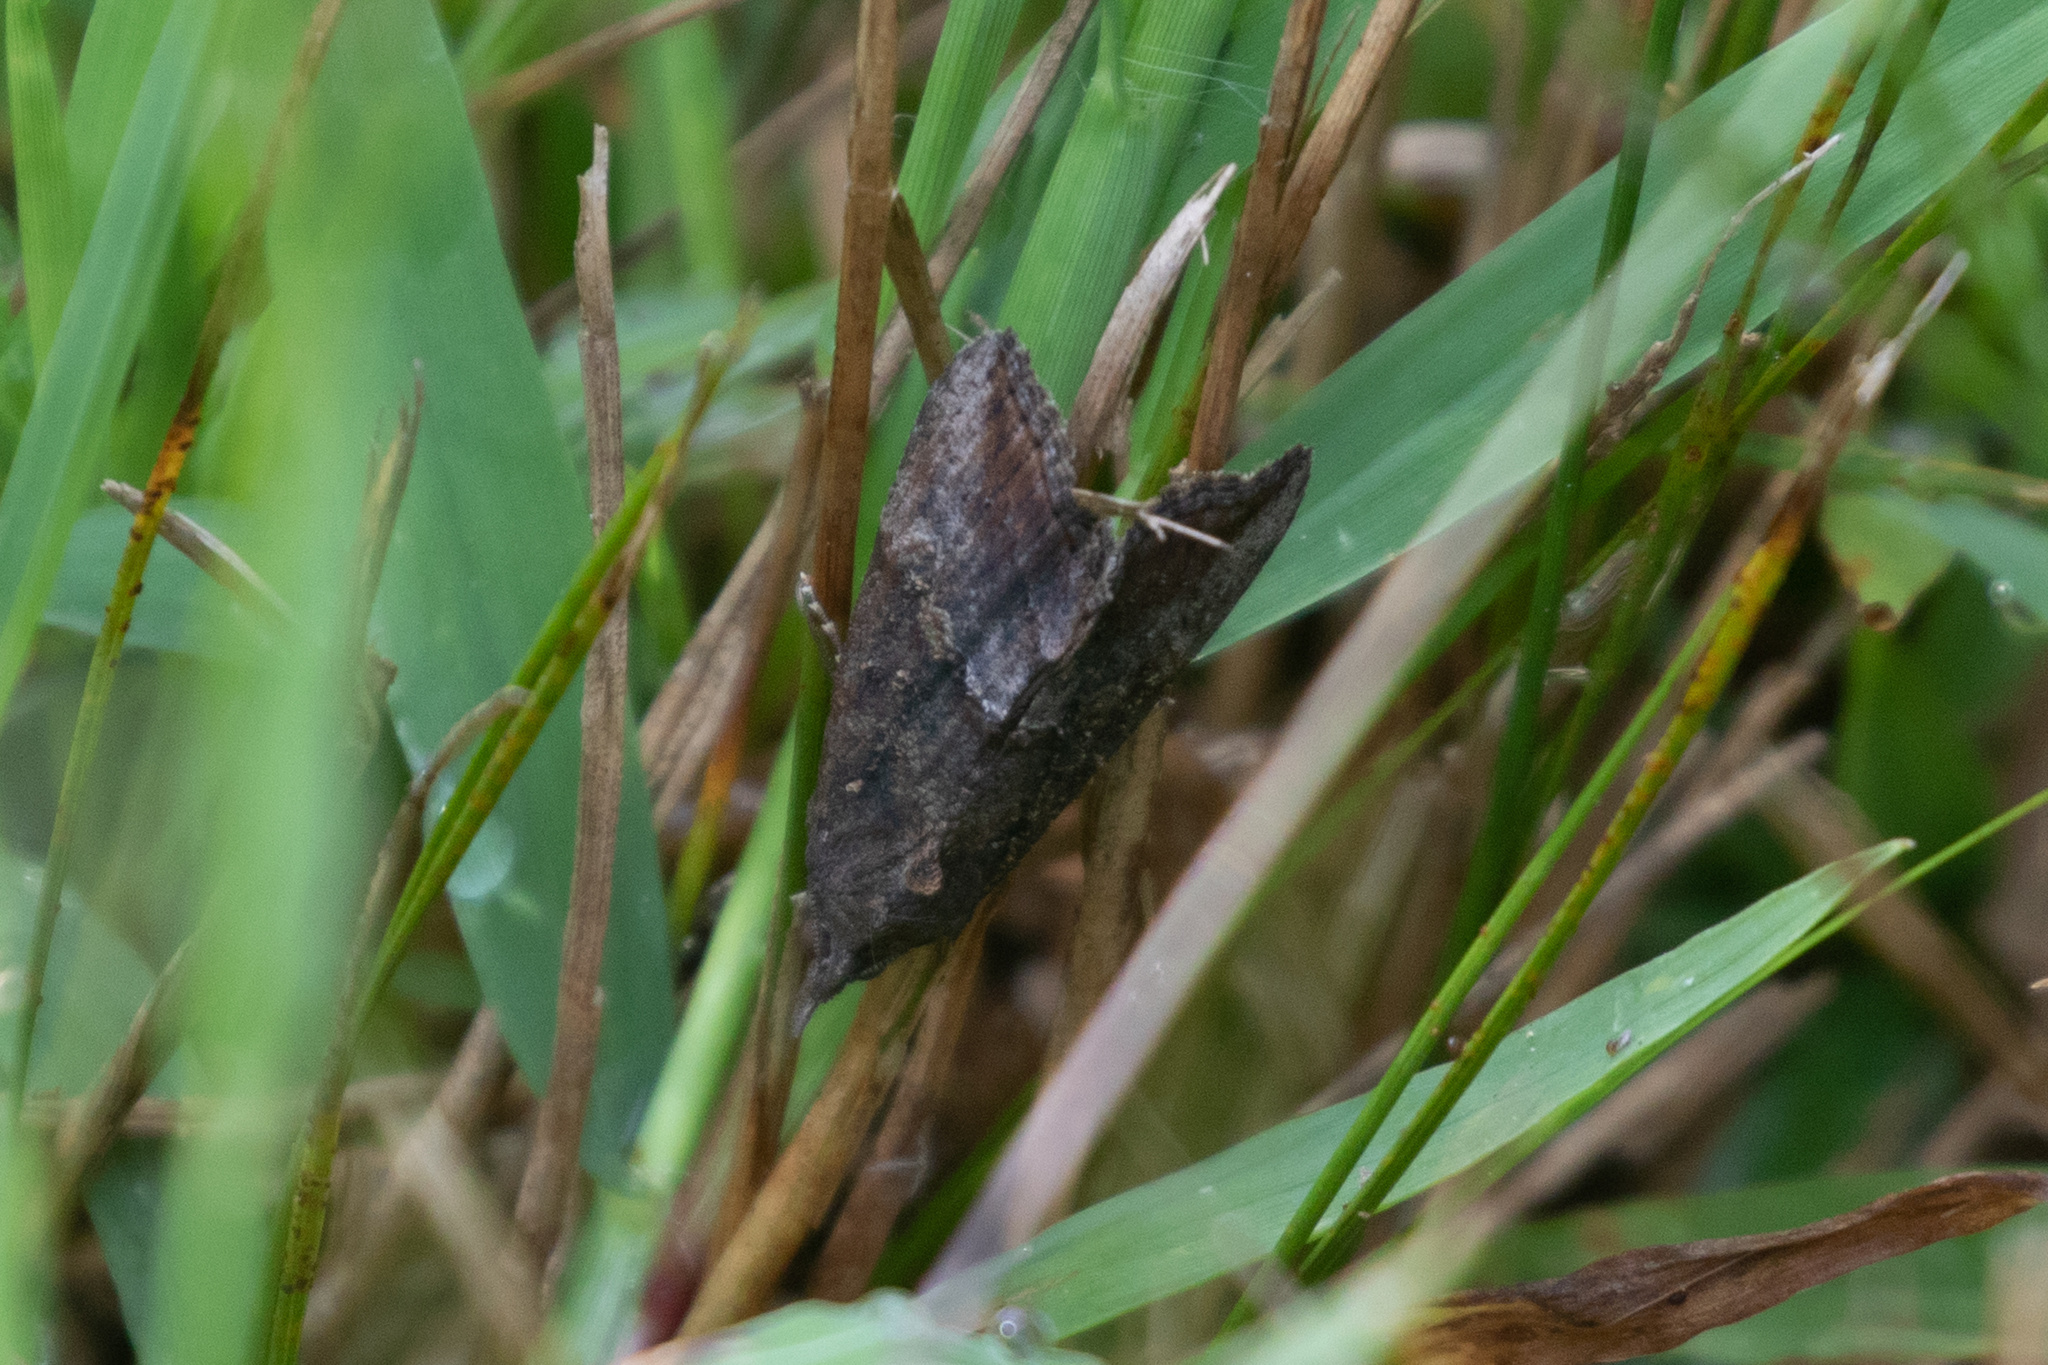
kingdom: Animalia
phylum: Arthropoda
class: Insecta
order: Lepidoptera
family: Erebidae
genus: Hypena
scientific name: Hypena scabra
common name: Green cloverworm
